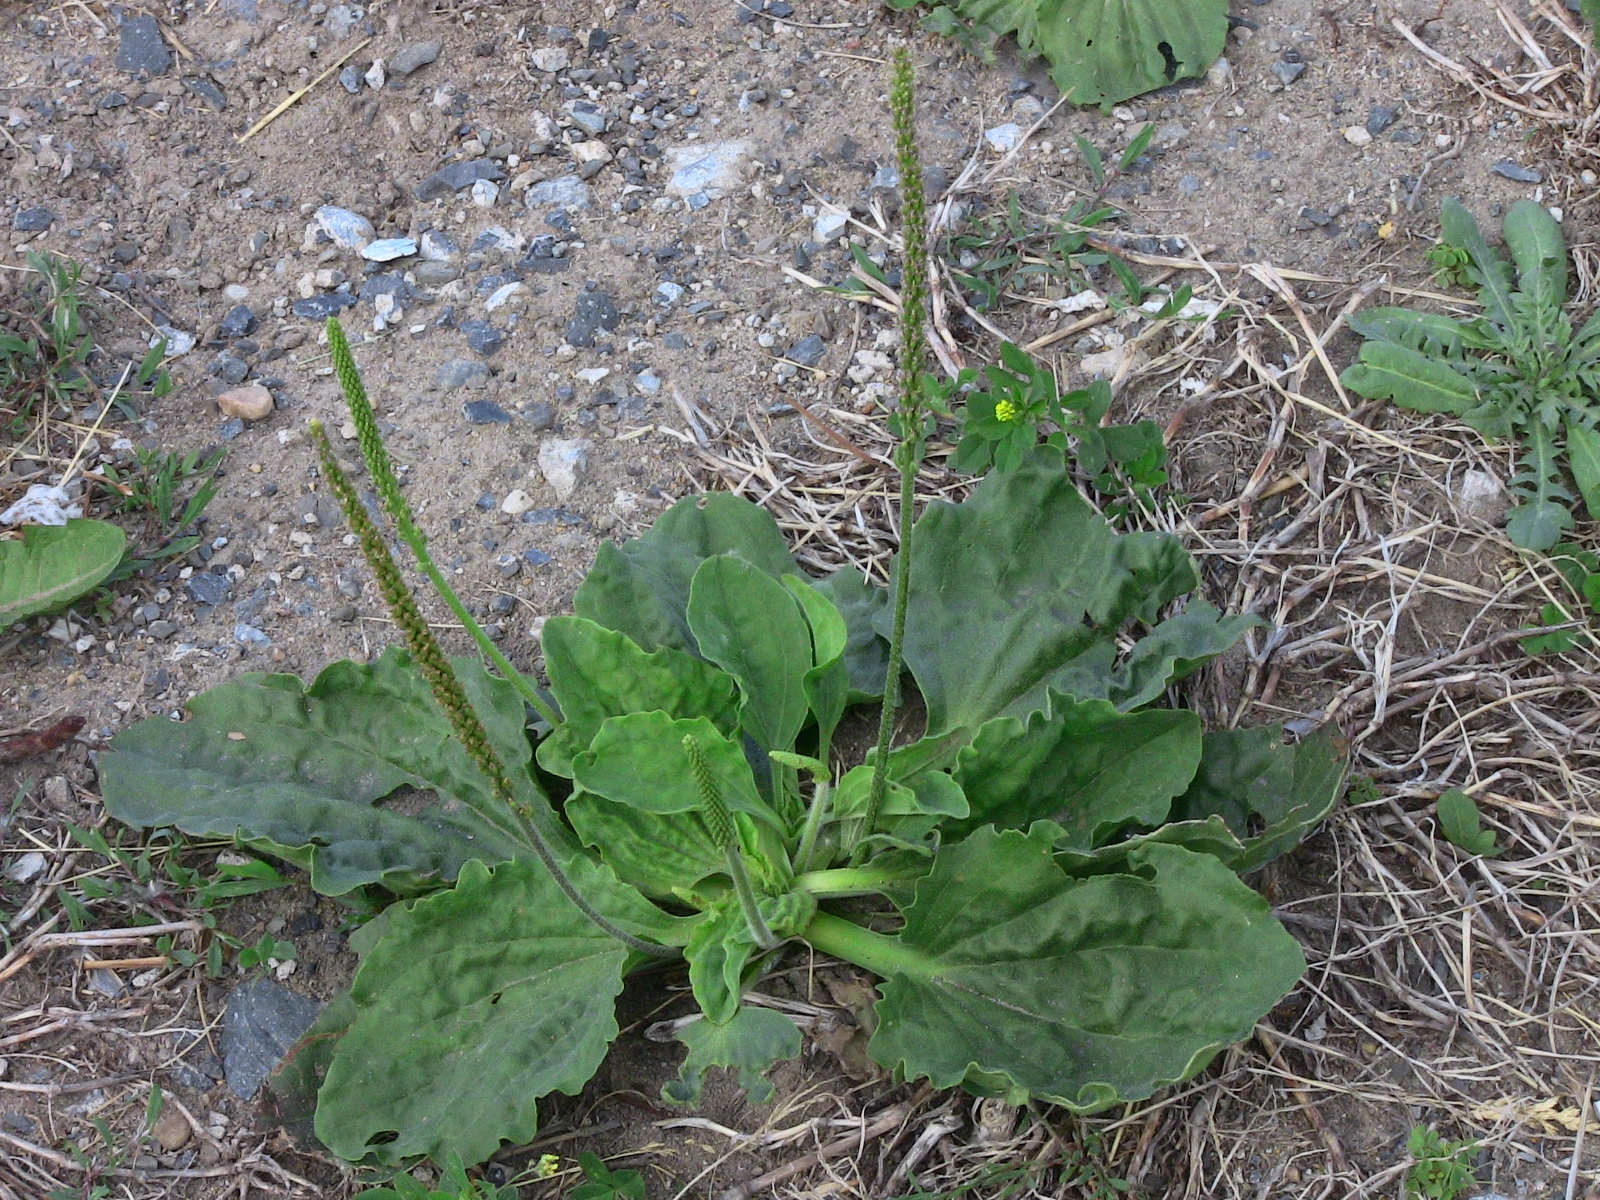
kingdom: Plantae
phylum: Tracheophyta
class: Magnoliopsida
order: Lamiales
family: Plantaginaceae
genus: Plantago
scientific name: Plantago major
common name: Common plantain
